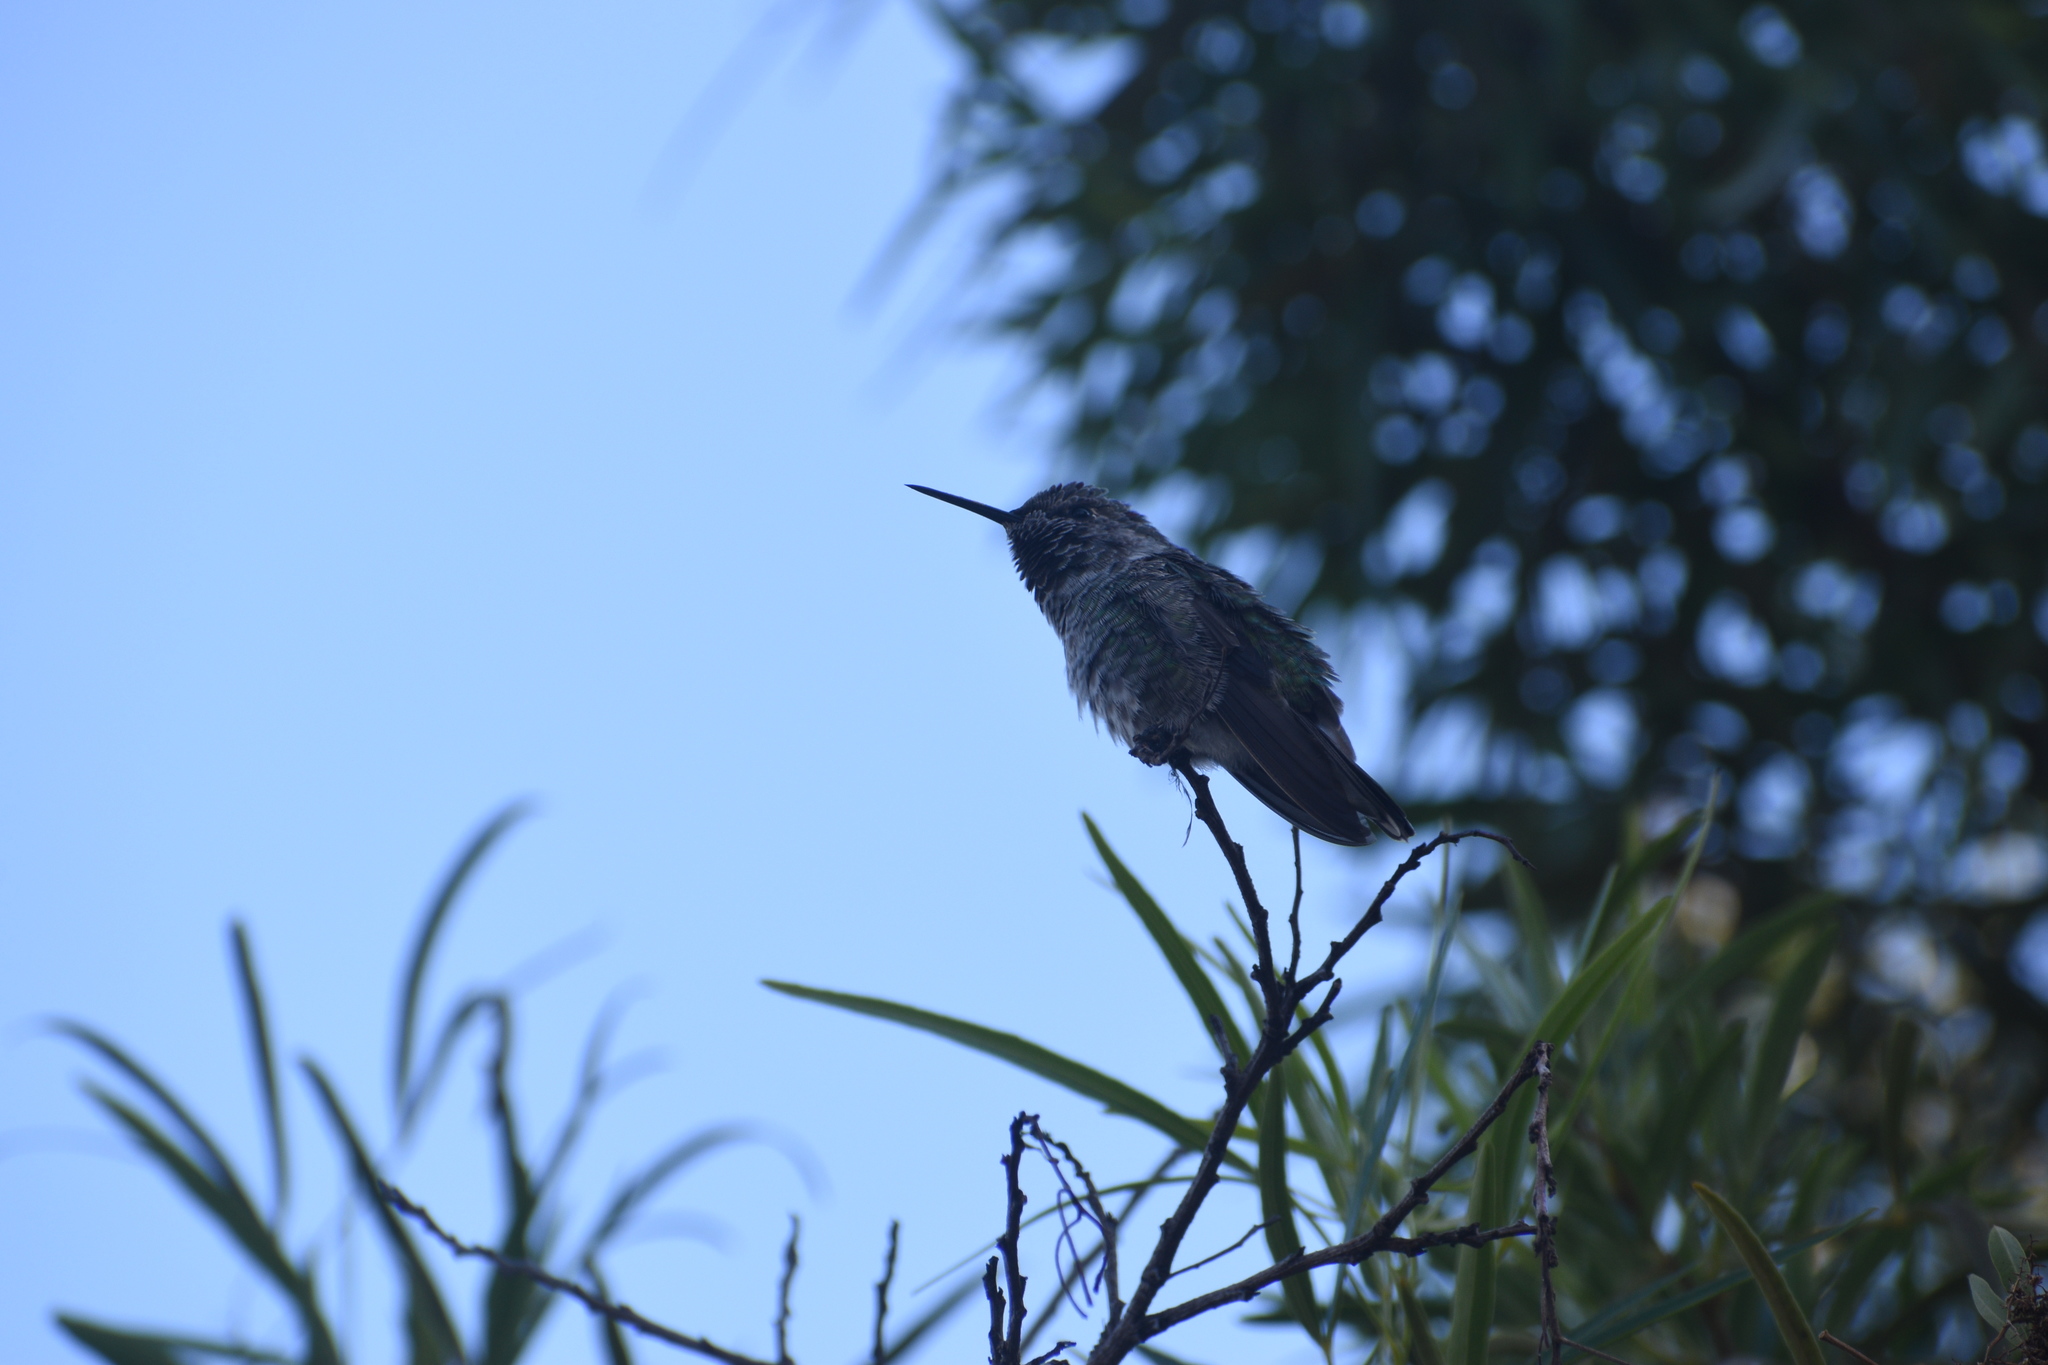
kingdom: Animalia
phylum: Chordata
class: Aves
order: Apodiformes
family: Trochilidae
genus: Calypte
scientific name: Calypte anna
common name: Anna's hummingbird
